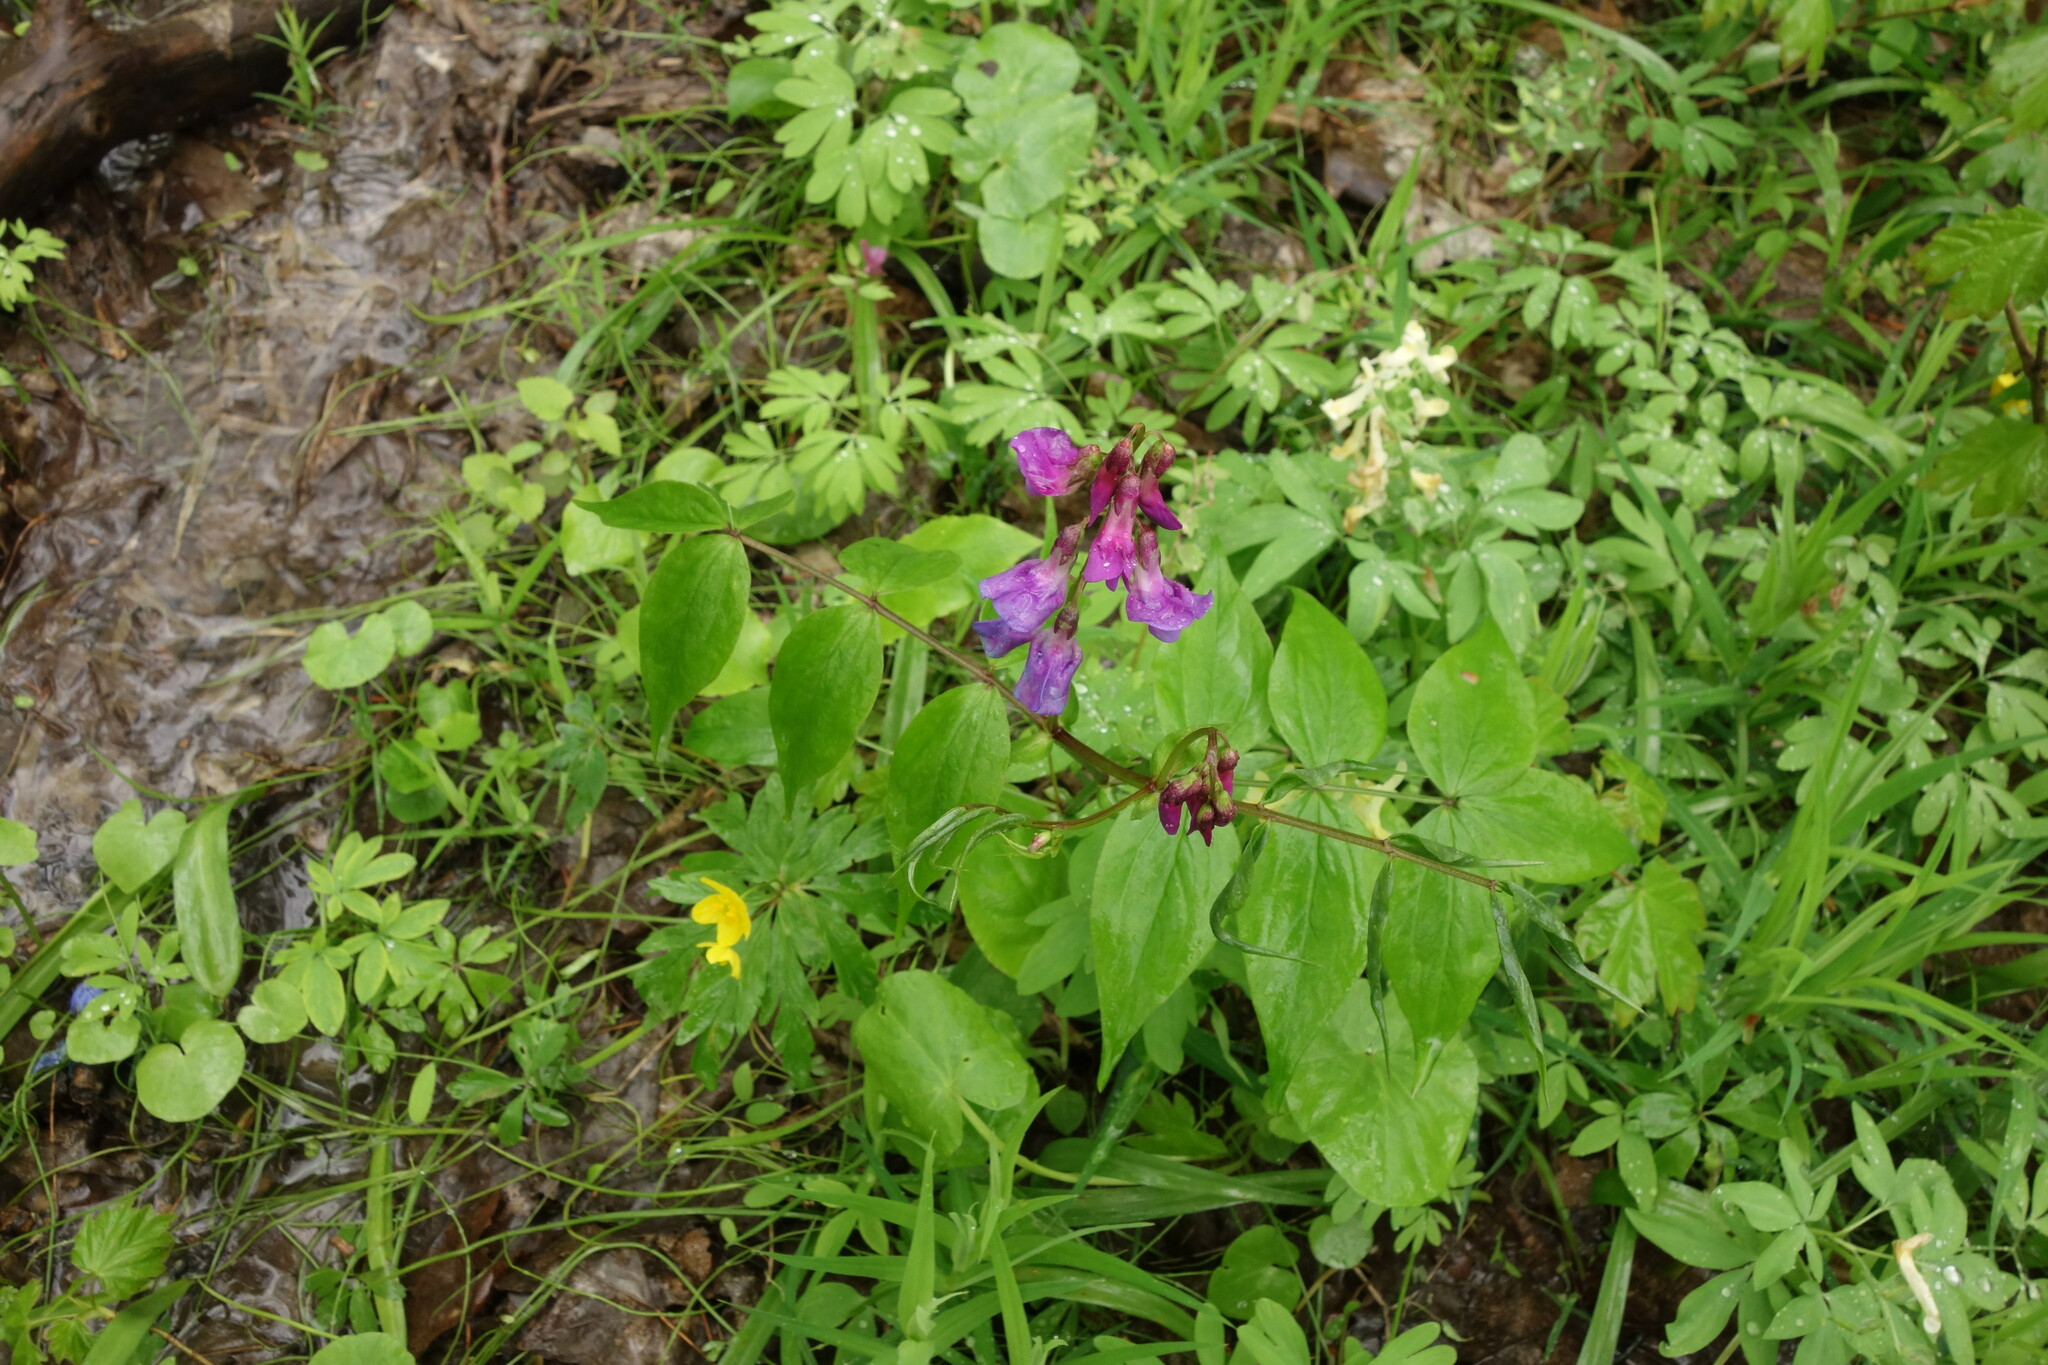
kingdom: Plantae
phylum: Tracheophyta
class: Magnoliopsida
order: Fabales
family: Fabaceae
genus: Lathyrus
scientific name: Lathyrus vernus
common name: Spring pea
